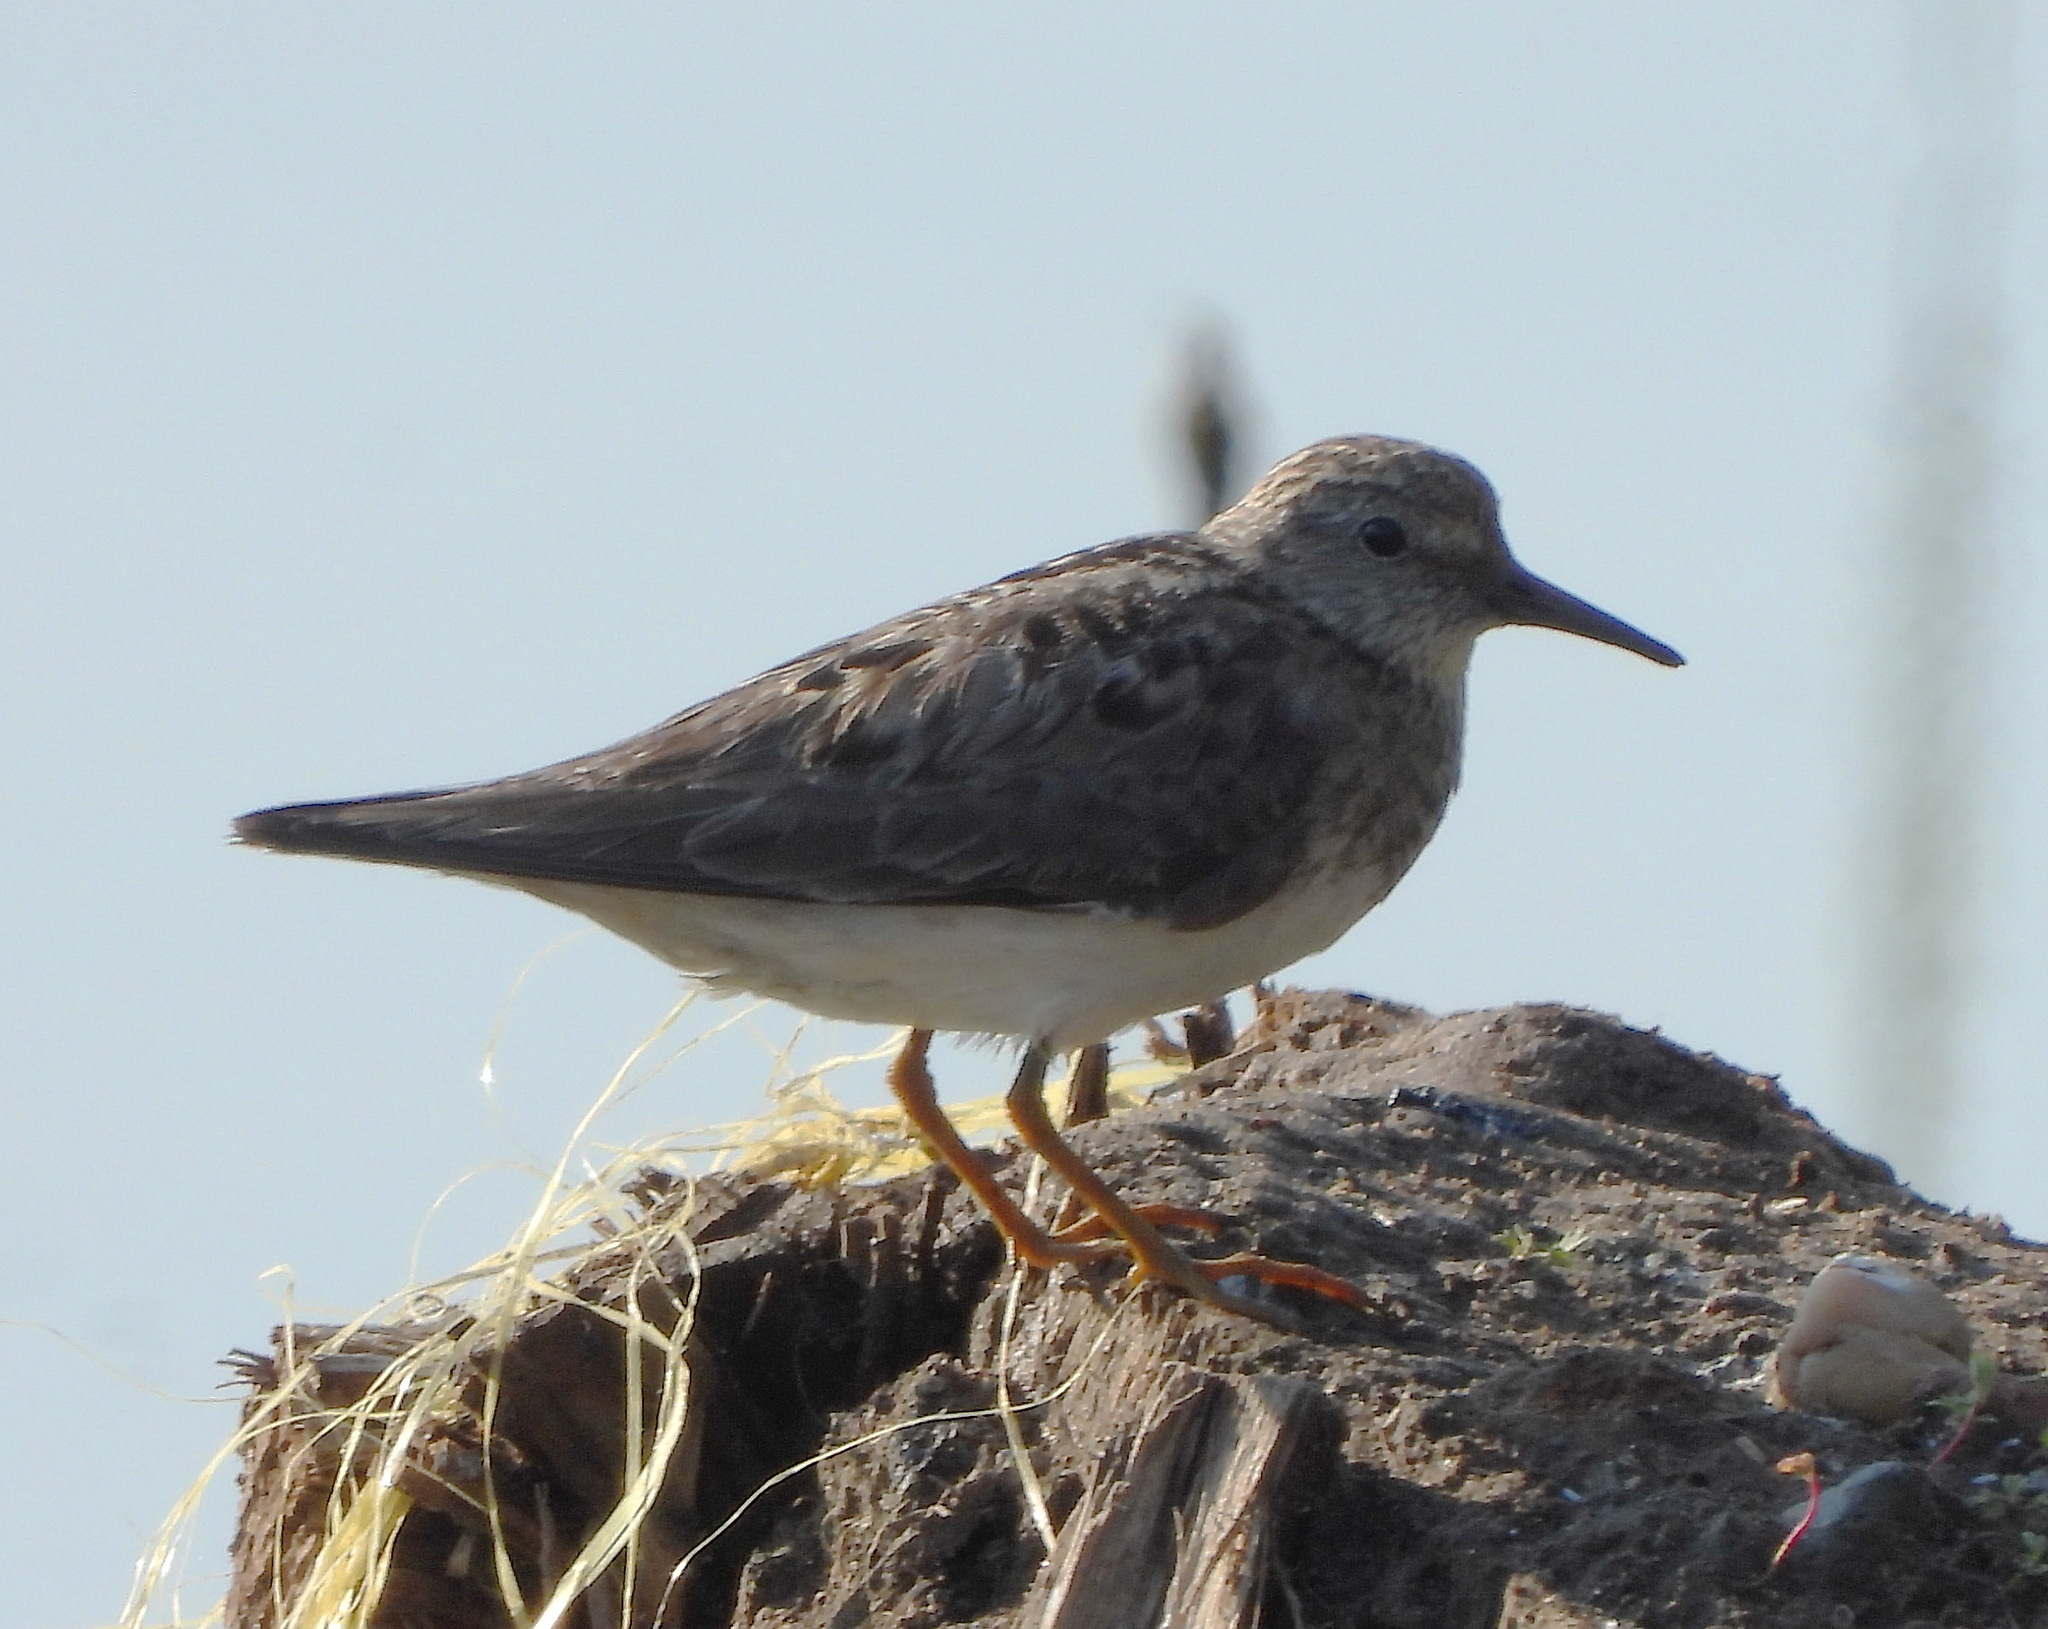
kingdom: Animalia
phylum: Chordata
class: Aves
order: Charadriiformes
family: Scolopacidae
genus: Calidris
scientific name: Calidris temminckii
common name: Temminck's stint
